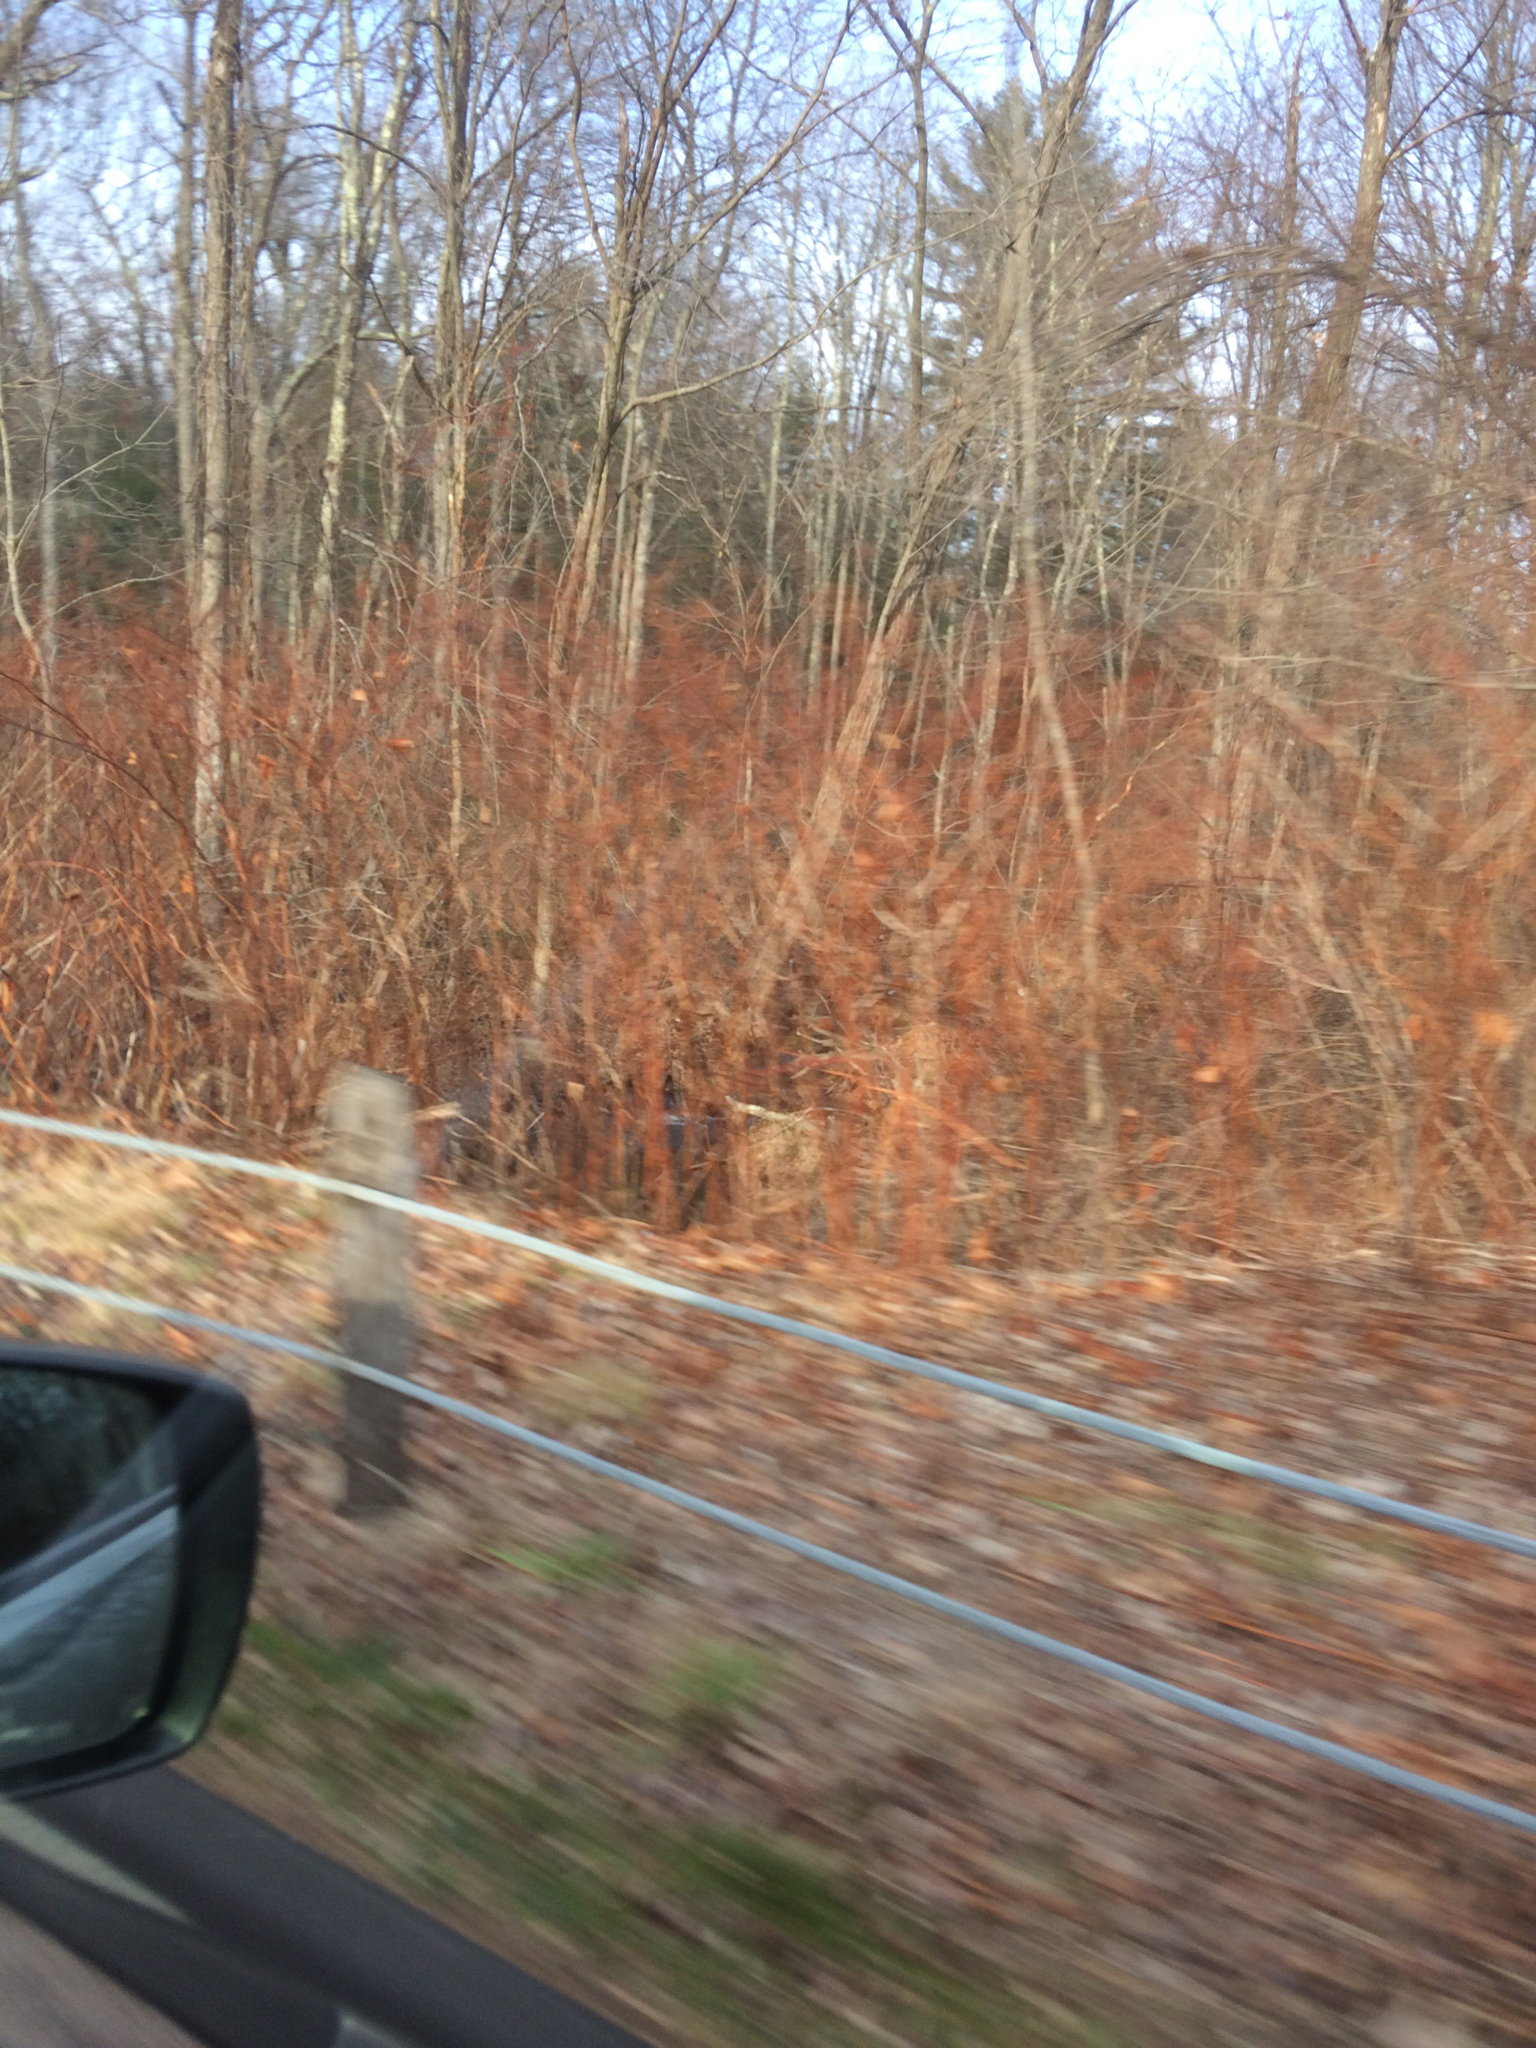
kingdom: Plantae
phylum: Tracheophyta
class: Magnoliopsida
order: Caryophyllales
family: Polygonaceae
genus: Reynoutria
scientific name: Reynoutria japonica
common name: Japanese knotweed
